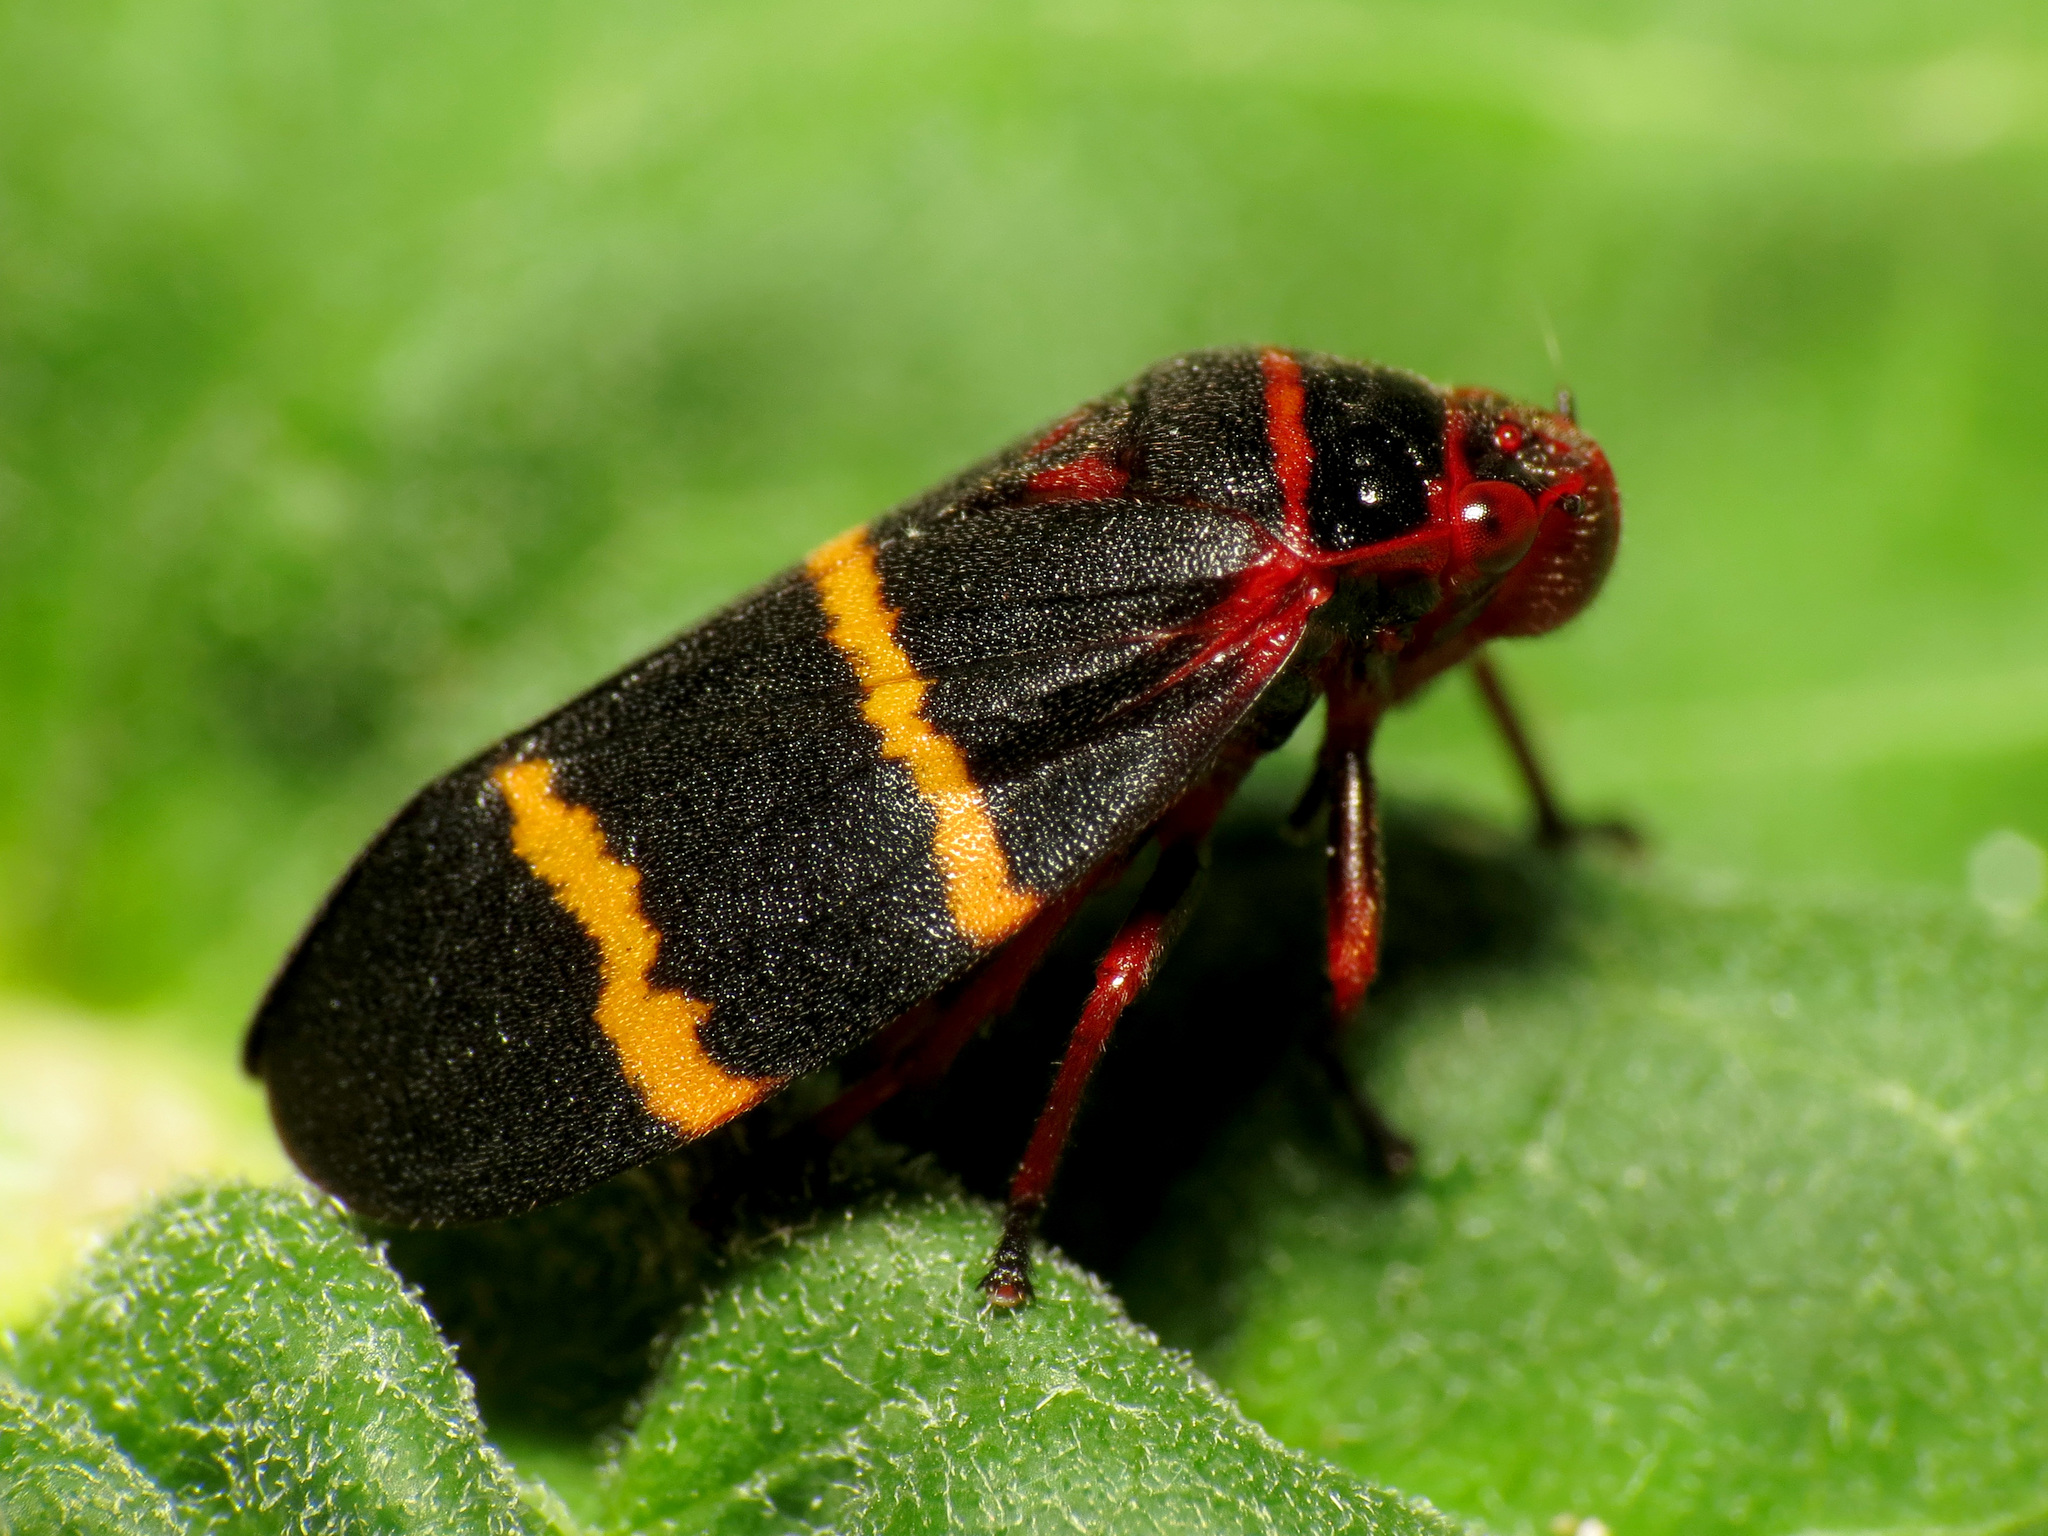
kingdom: Animalia
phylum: Arthropoda
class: Insecta
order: Hemiptera
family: Cercopidae
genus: Prosapia
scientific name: Prosapia bicincta
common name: Twolined spittlebug
